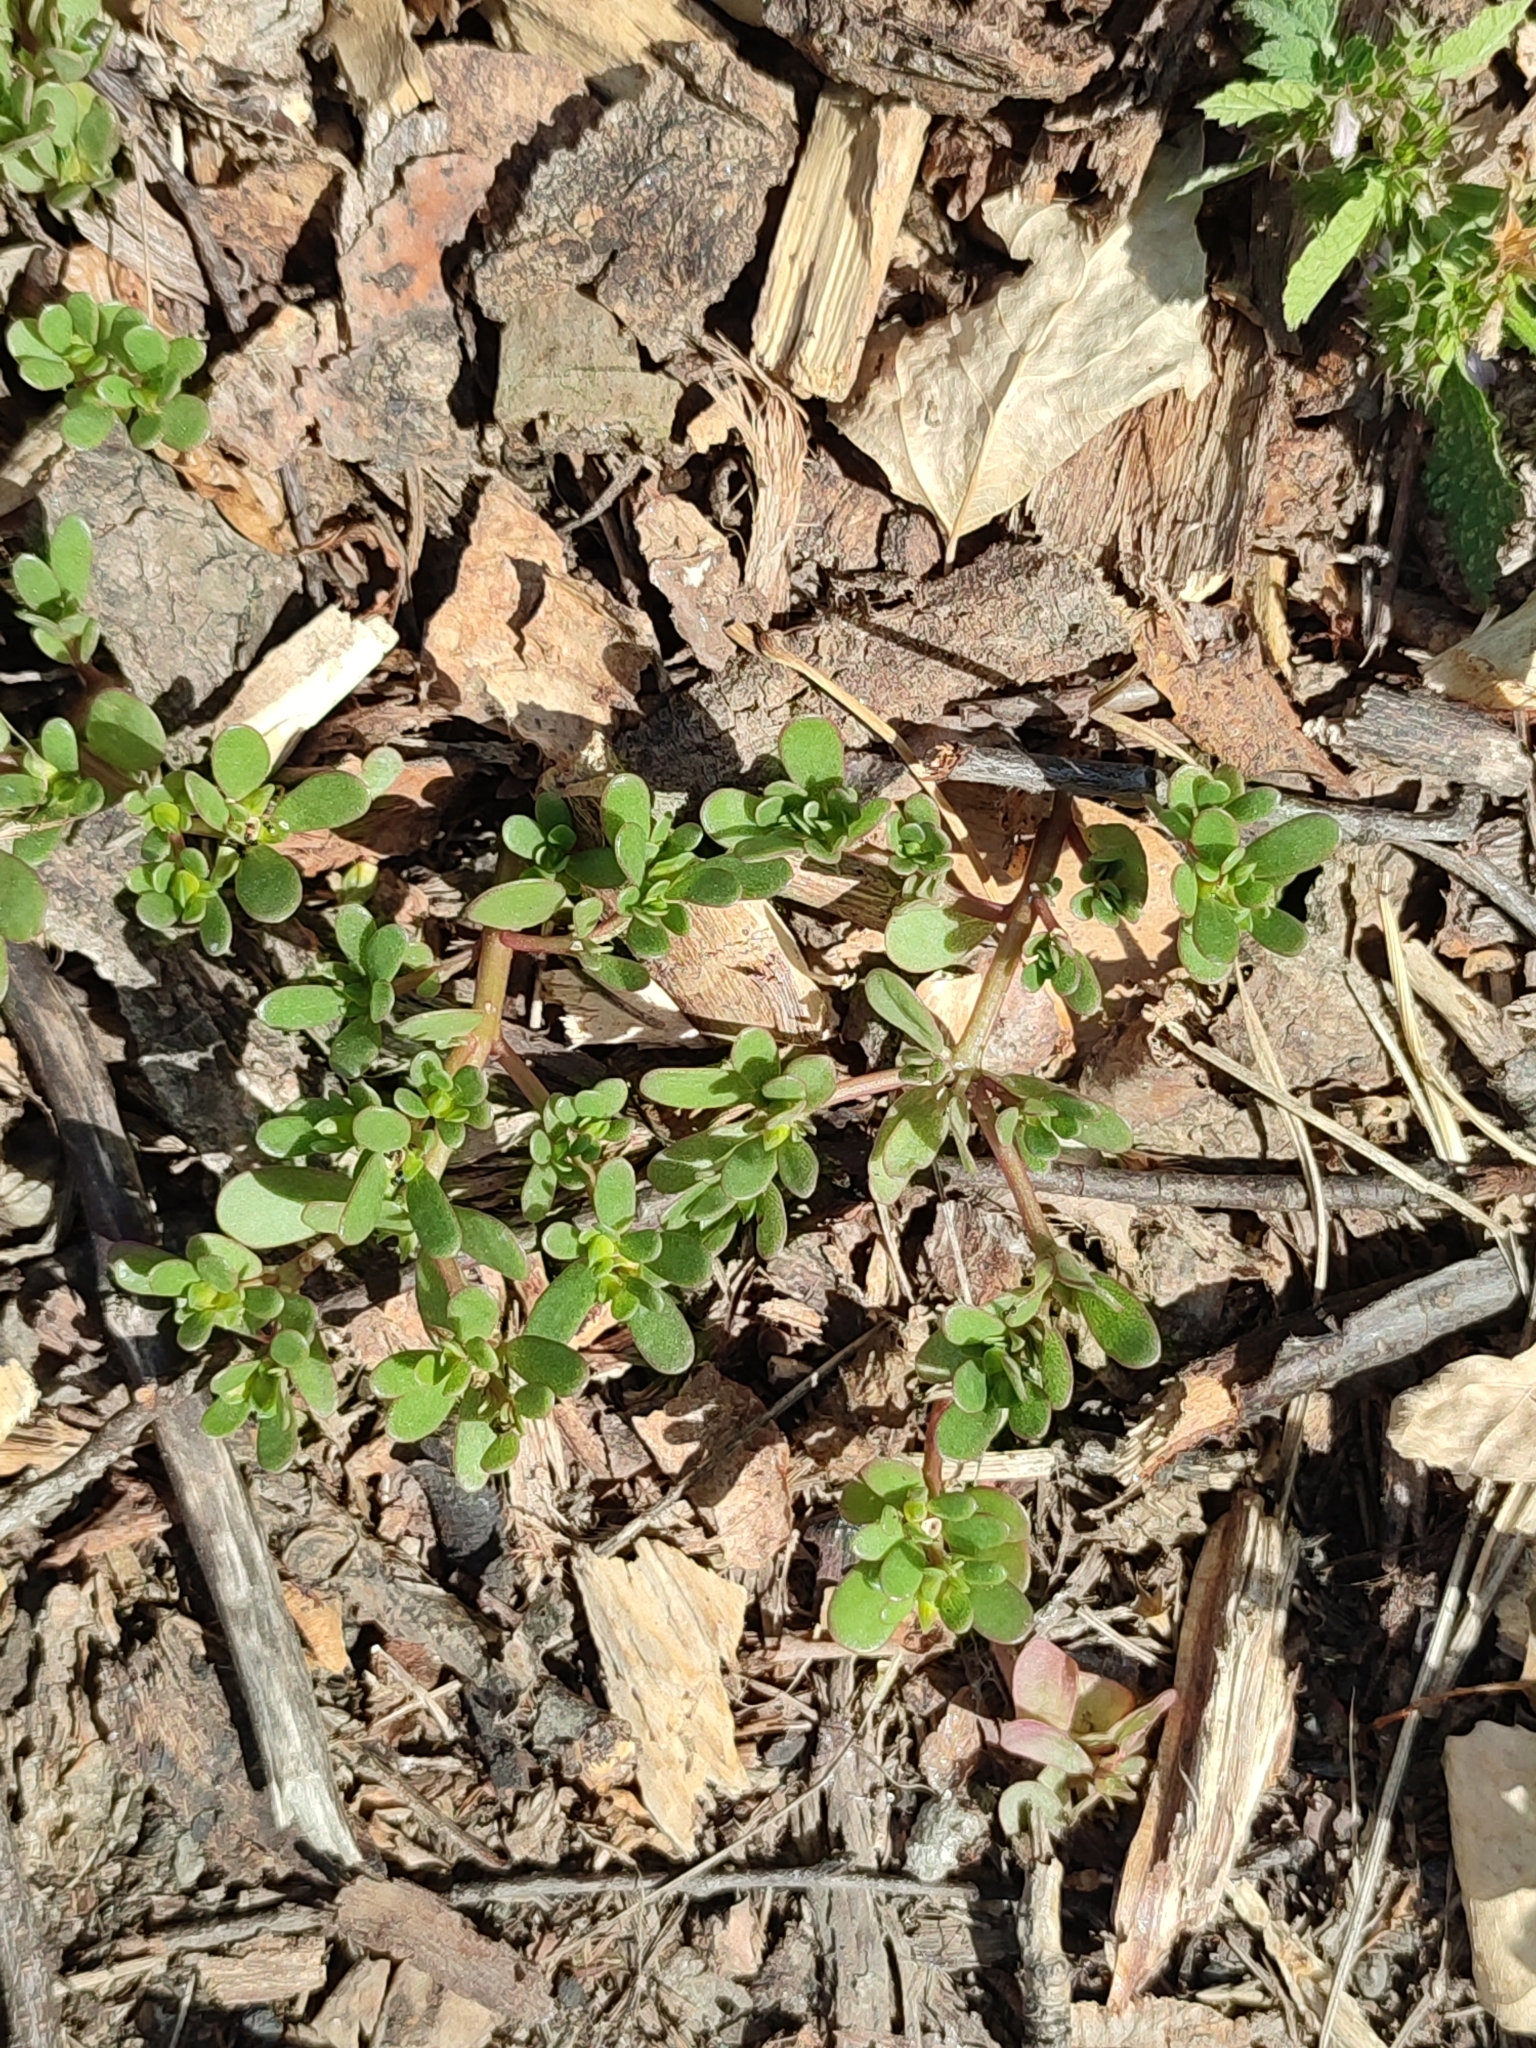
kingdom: Plantae
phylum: Tracheophyta
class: Magnoliopsida
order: Caryophyllales
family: Portulacaceae
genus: Portulaca
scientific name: Portulaca oleracea
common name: Common purslane
